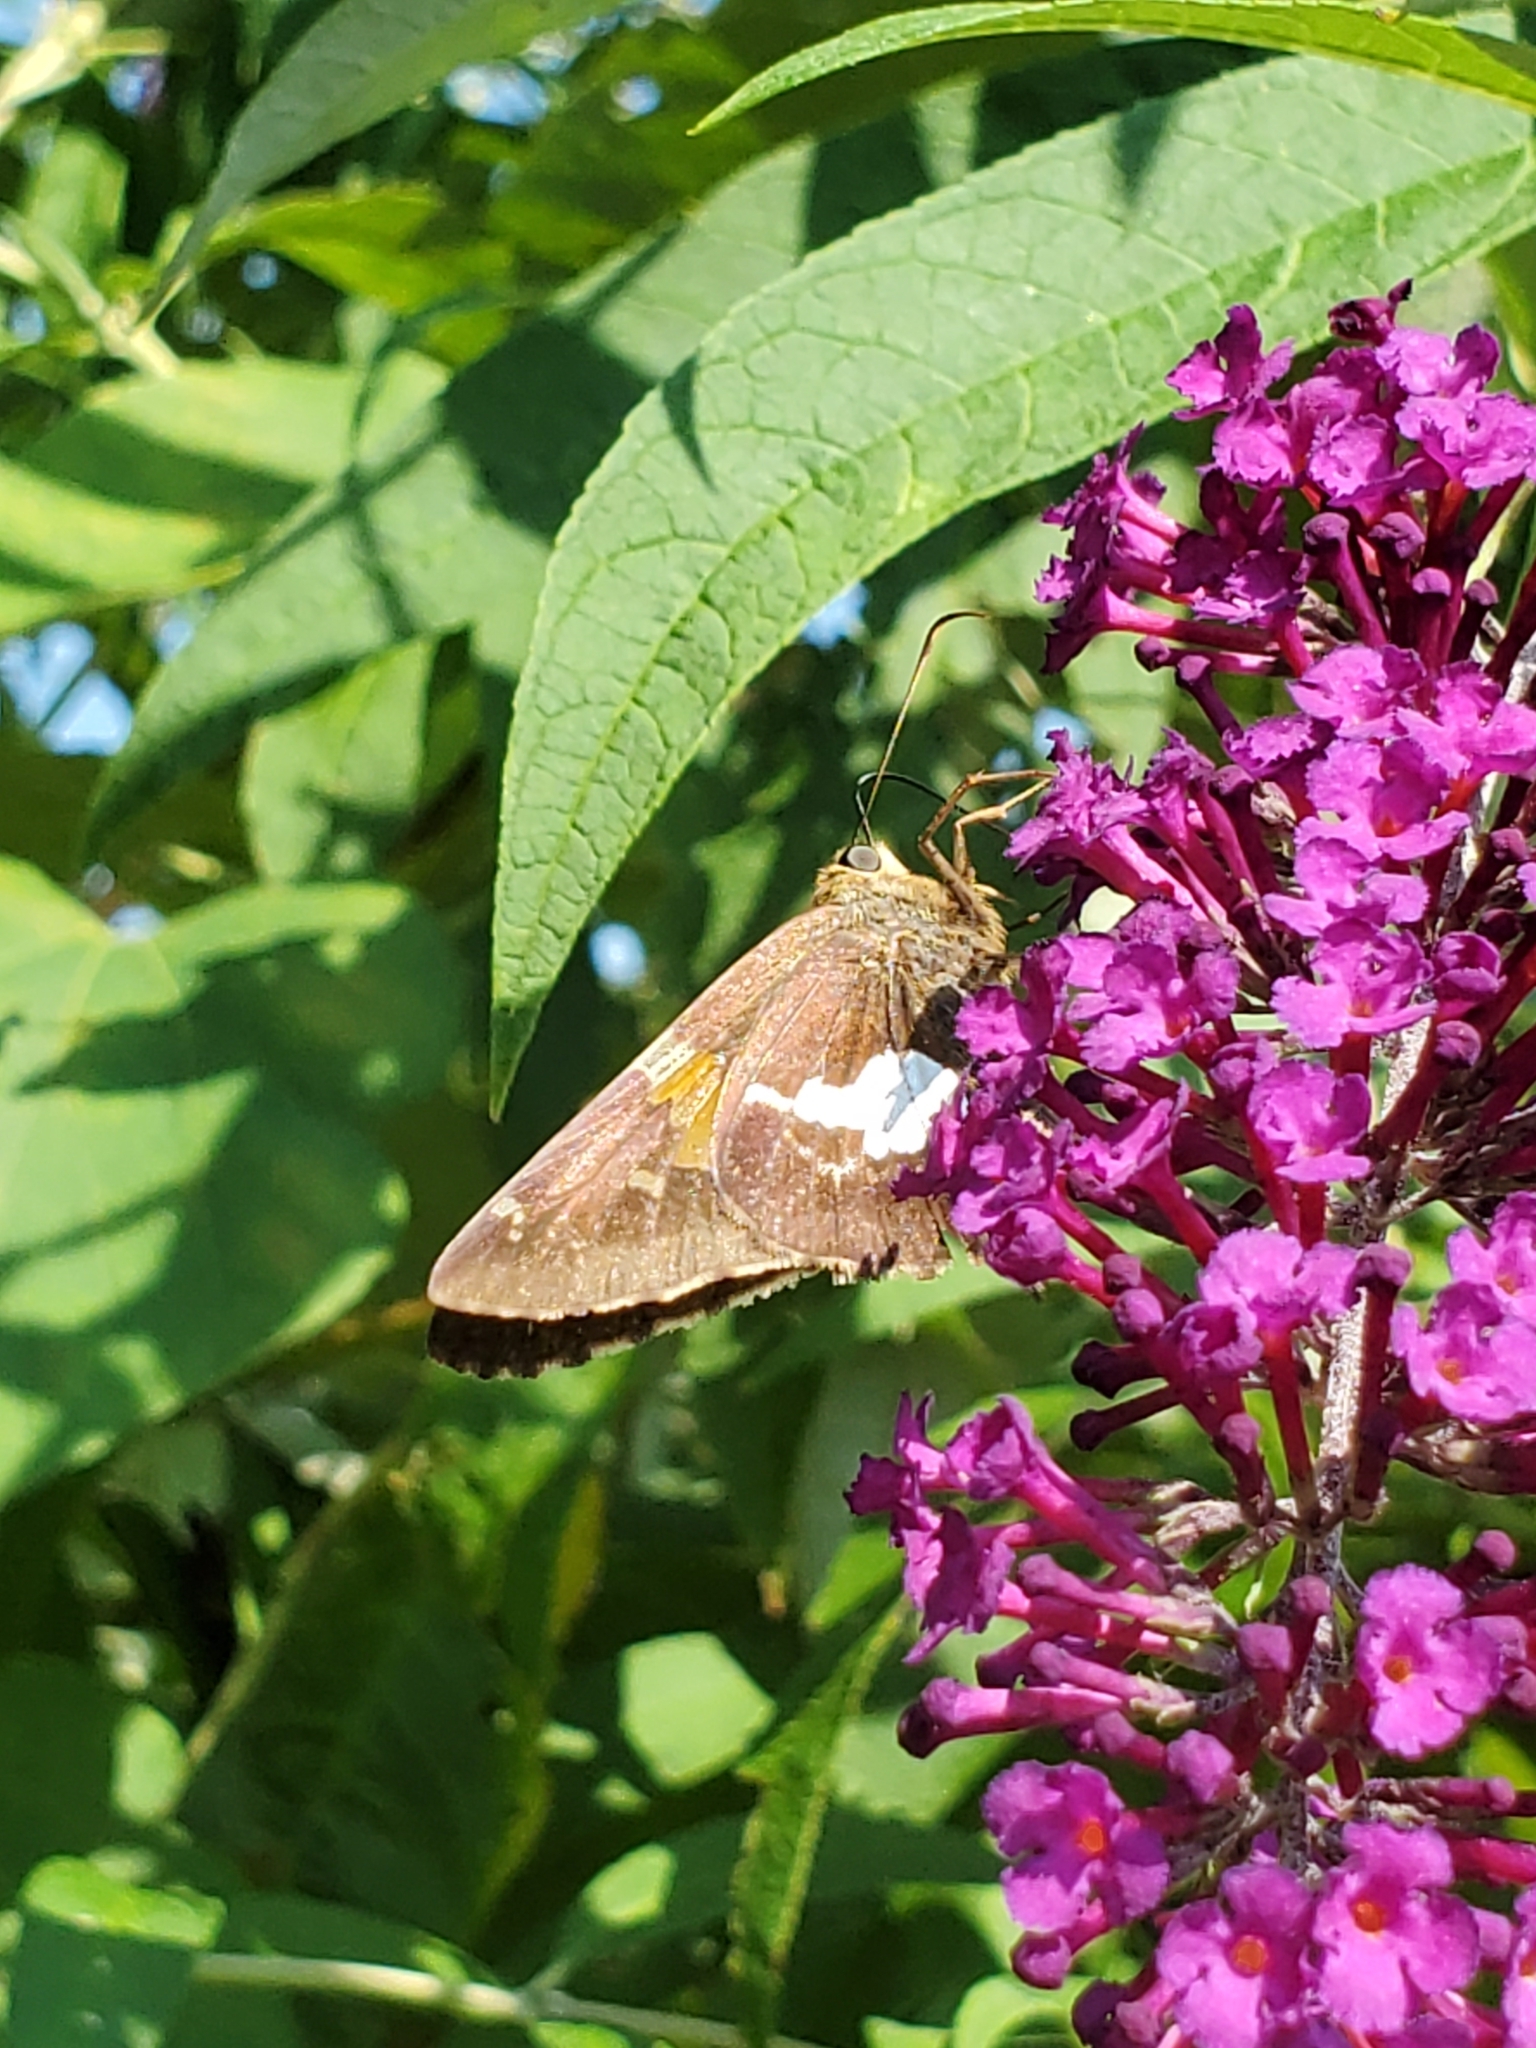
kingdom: Animalia
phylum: Arthropoda
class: Insecta
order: Lepidoptera
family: Hesperiidae
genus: Epargyreus
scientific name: Epargyreus clarus
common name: Silver-spotted skipper
